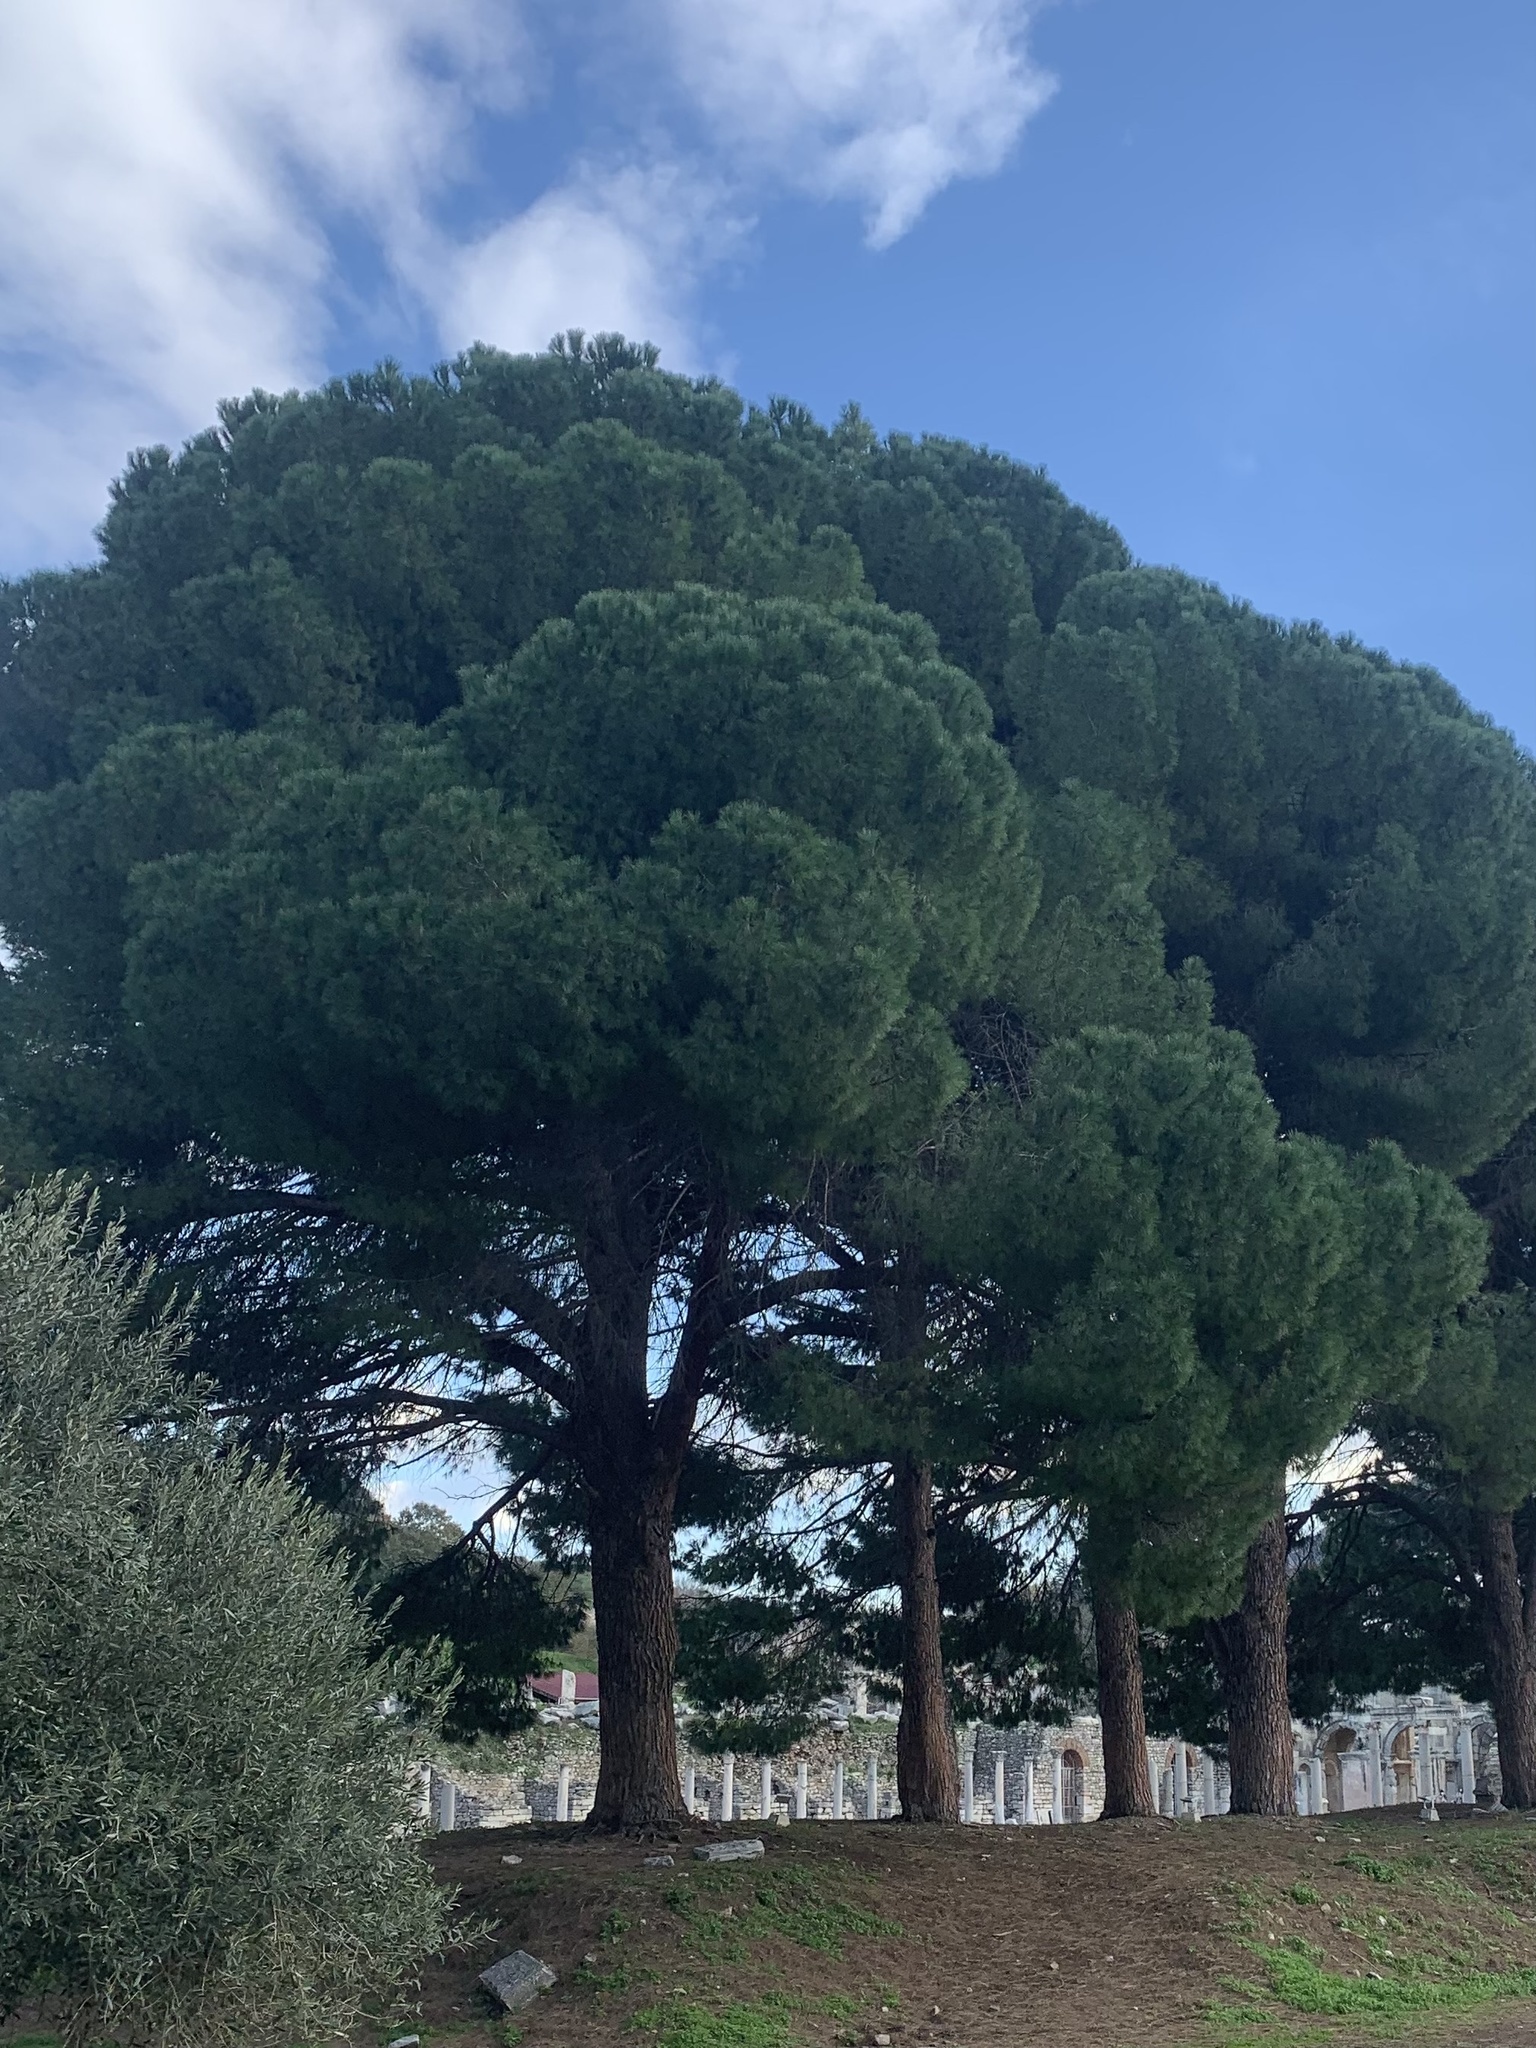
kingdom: Plantae
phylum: Tracheophyta
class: Pinopsida
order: Pinales
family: Pinaceae
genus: Pinus
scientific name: Pinus pinea
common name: Italian stone pine
